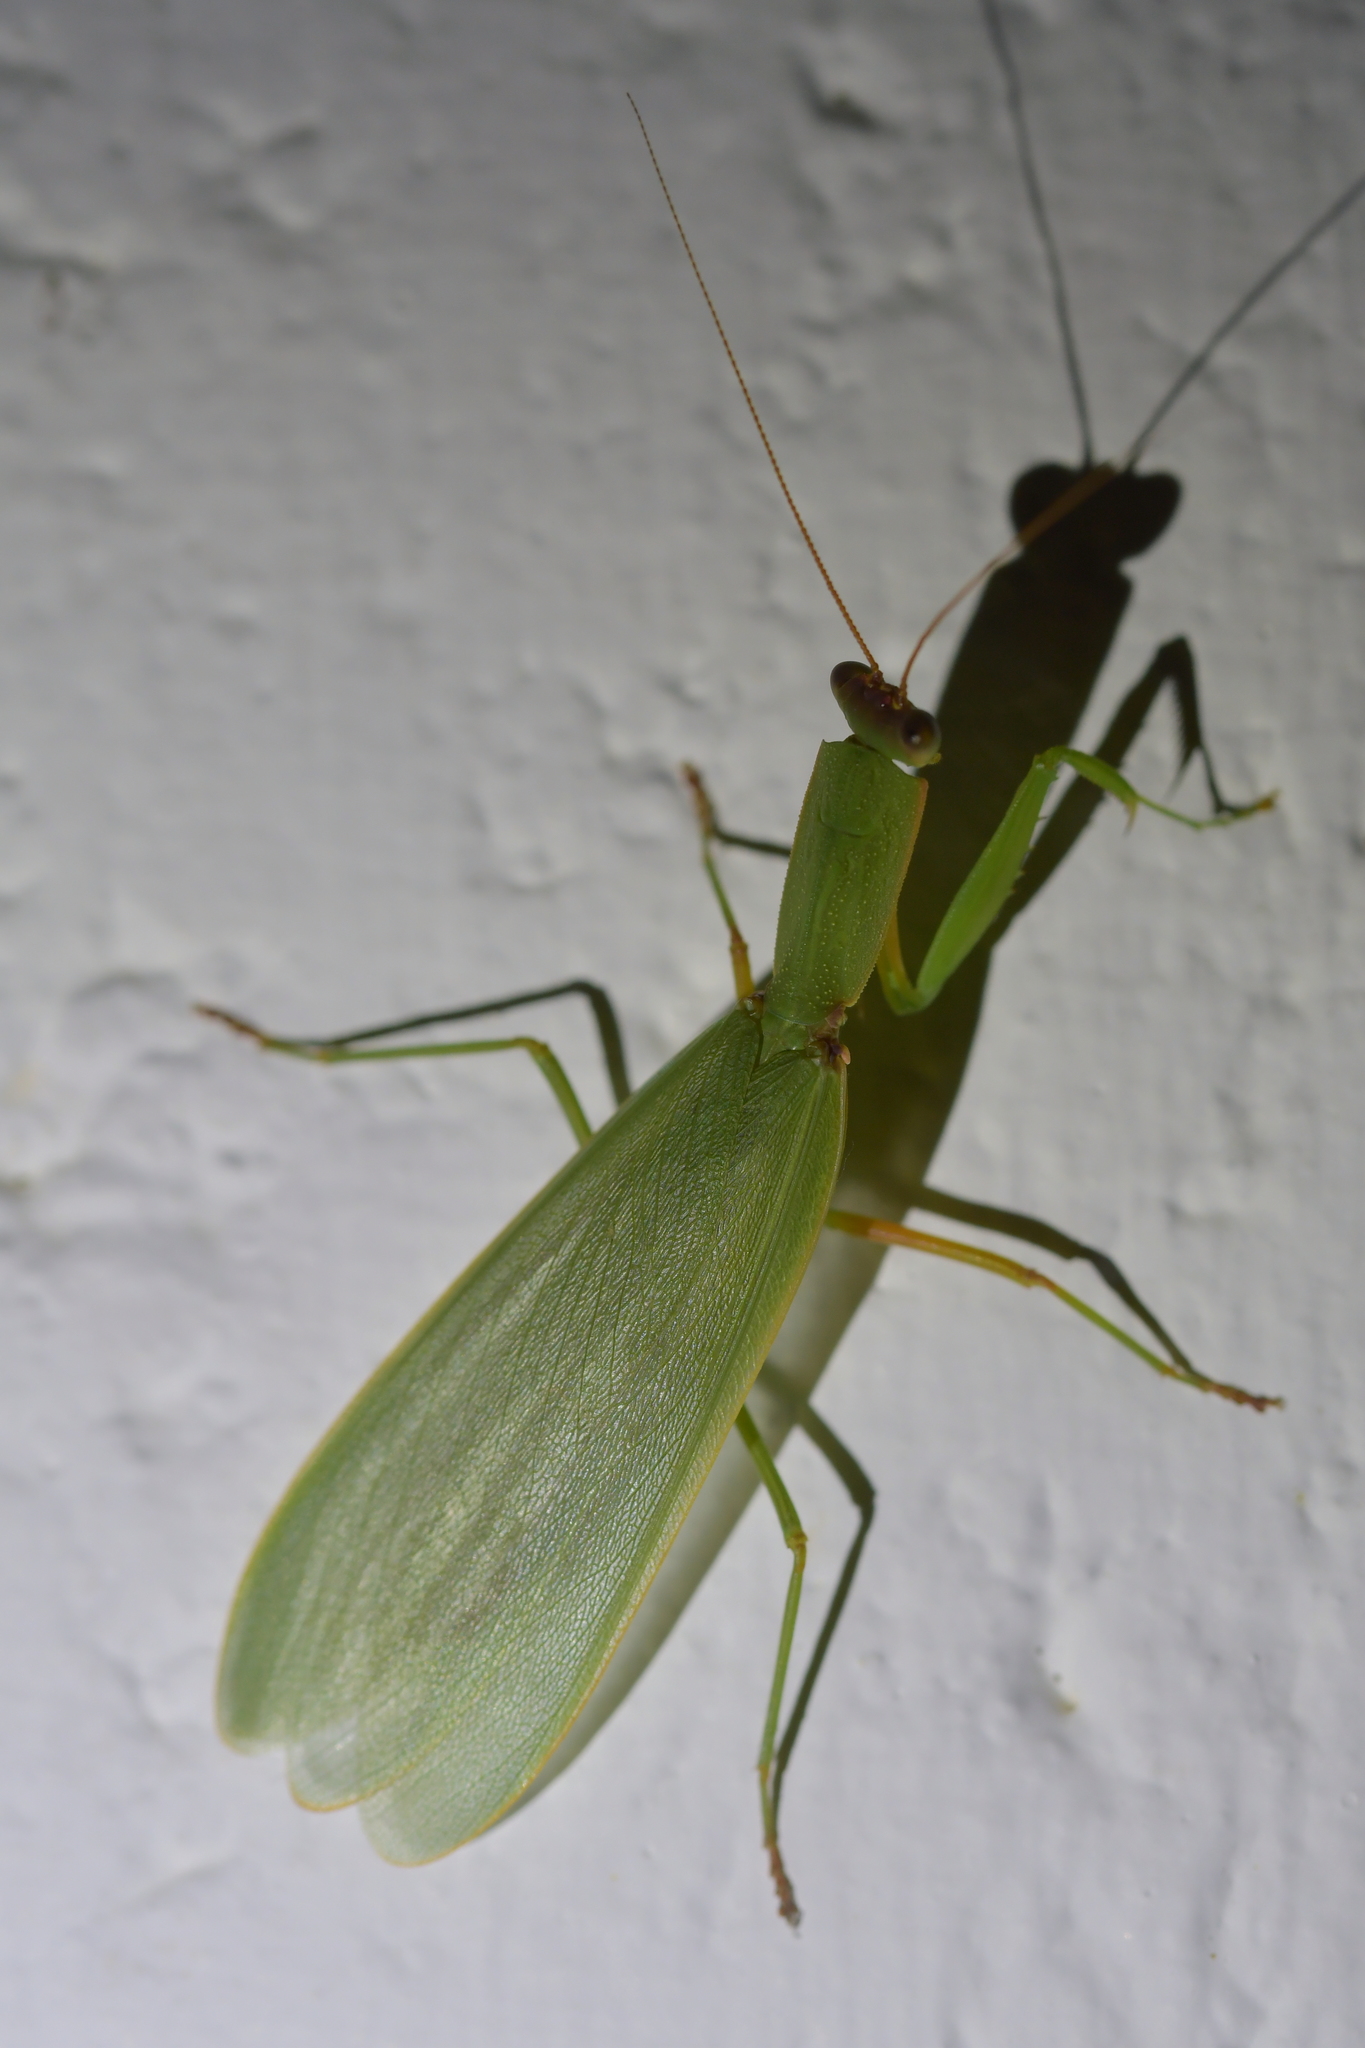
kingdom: Animalia
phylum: Arthropoda
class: Insecta
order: Mantodea
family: Mantidae
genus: Orthodera
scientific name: Orthodera novaezealandiae
